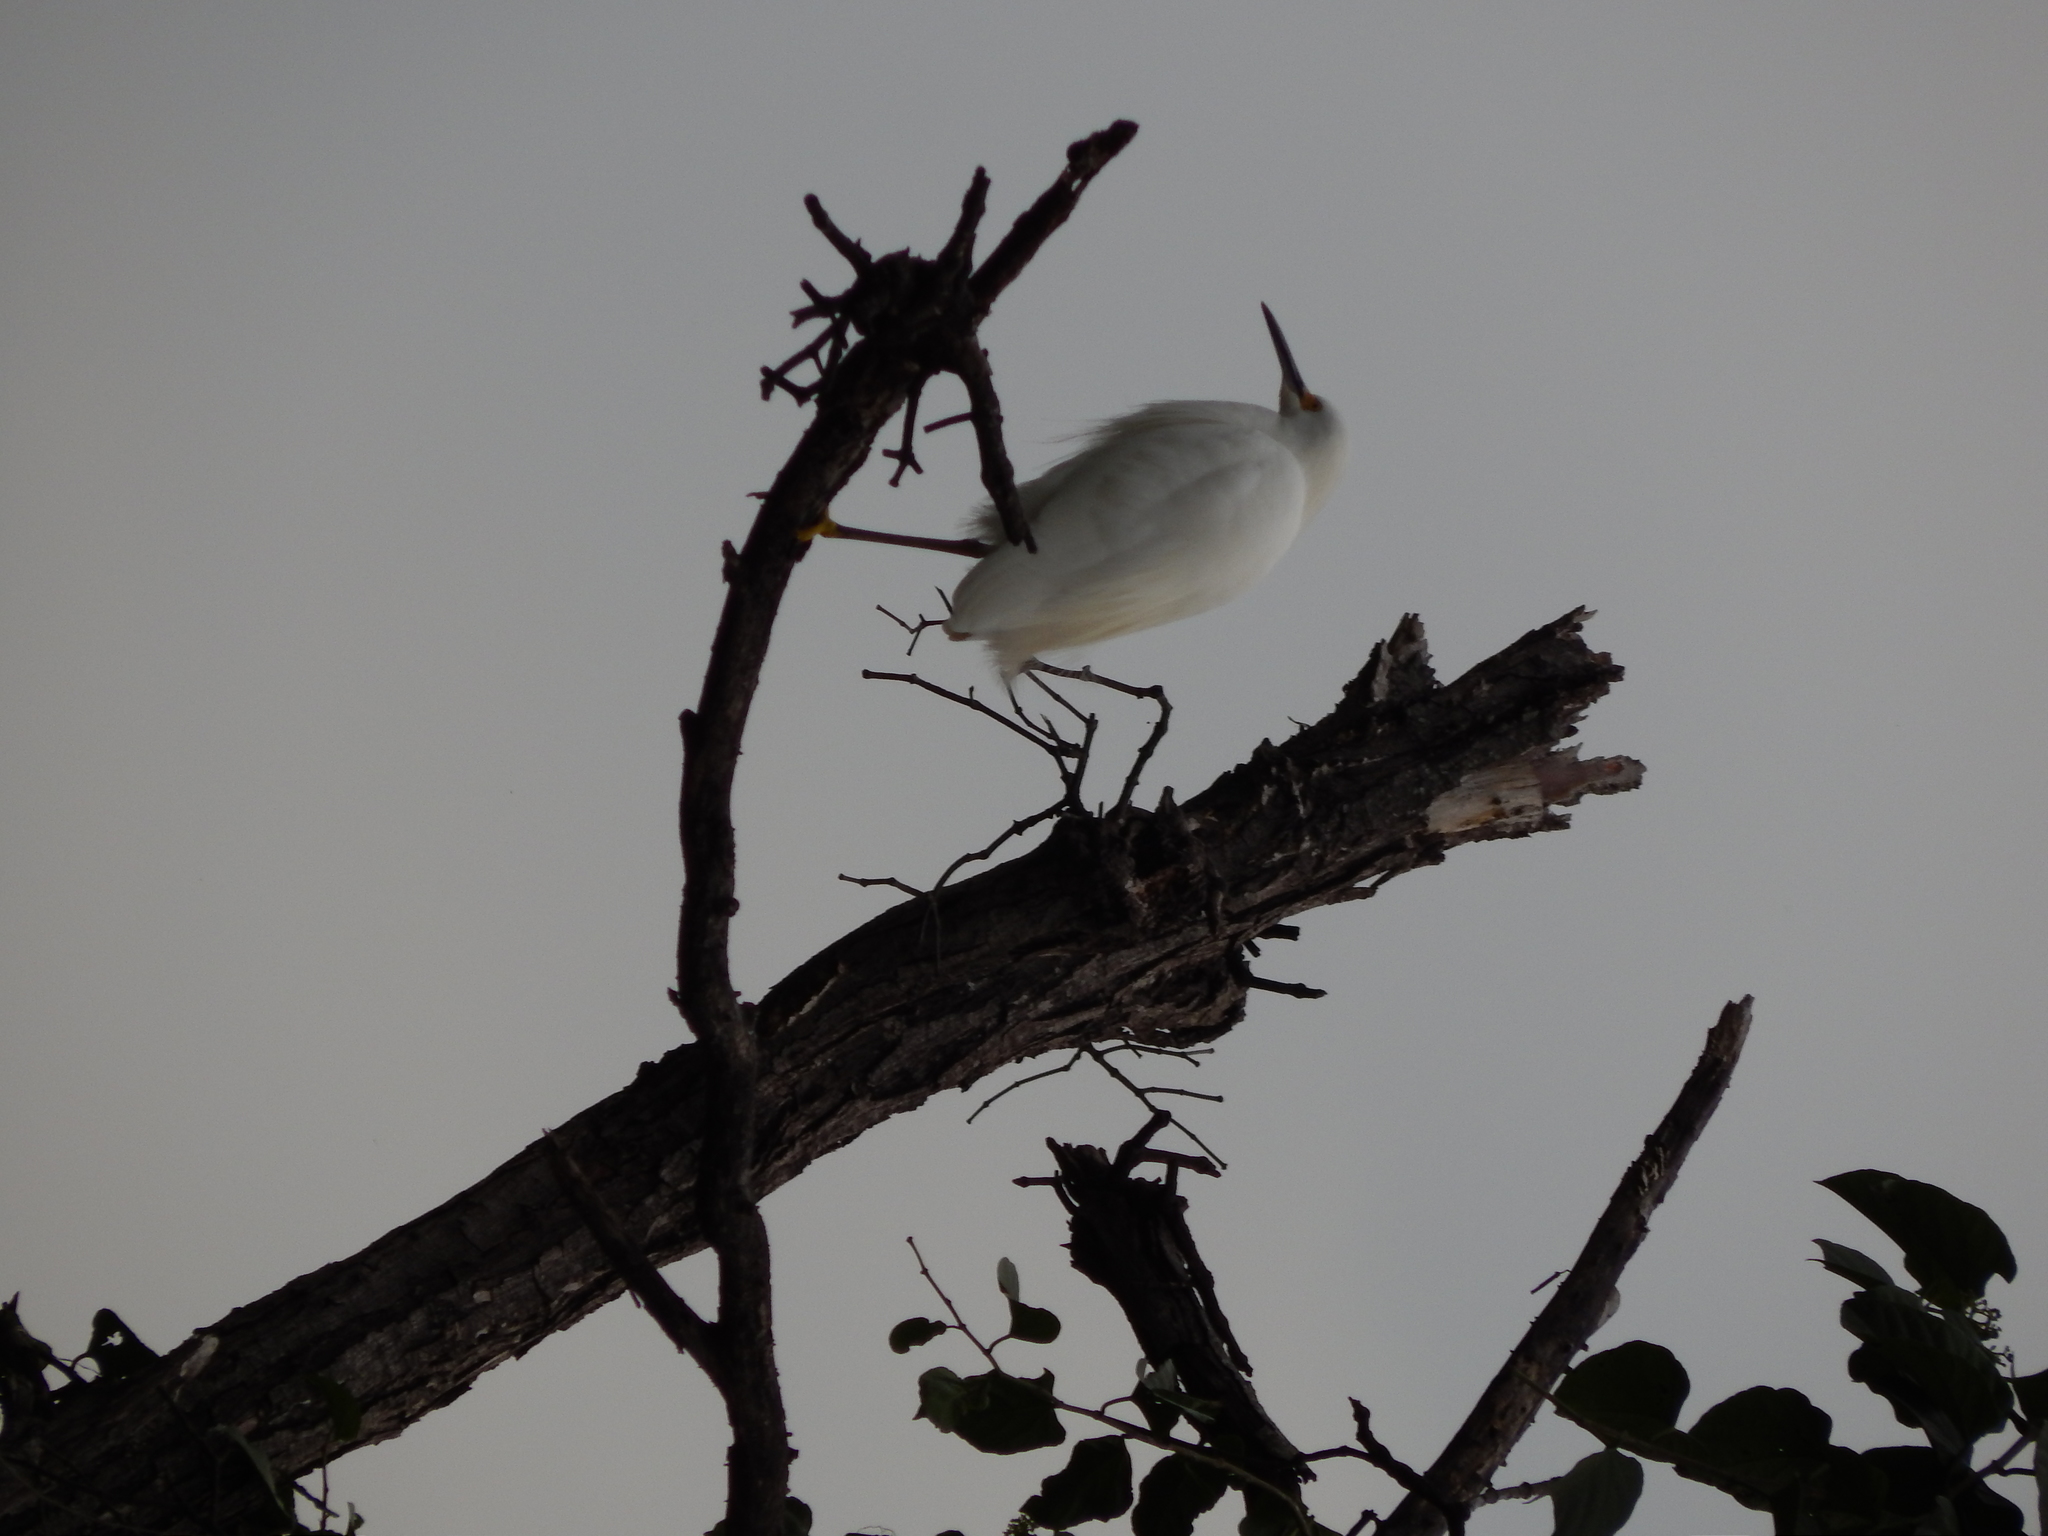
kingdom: Animalia
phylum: Chordata
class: Aves
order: Pelecaniformes
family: Ardeidae
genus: Egretta
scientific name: Egretta thula
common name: Snowy egret
